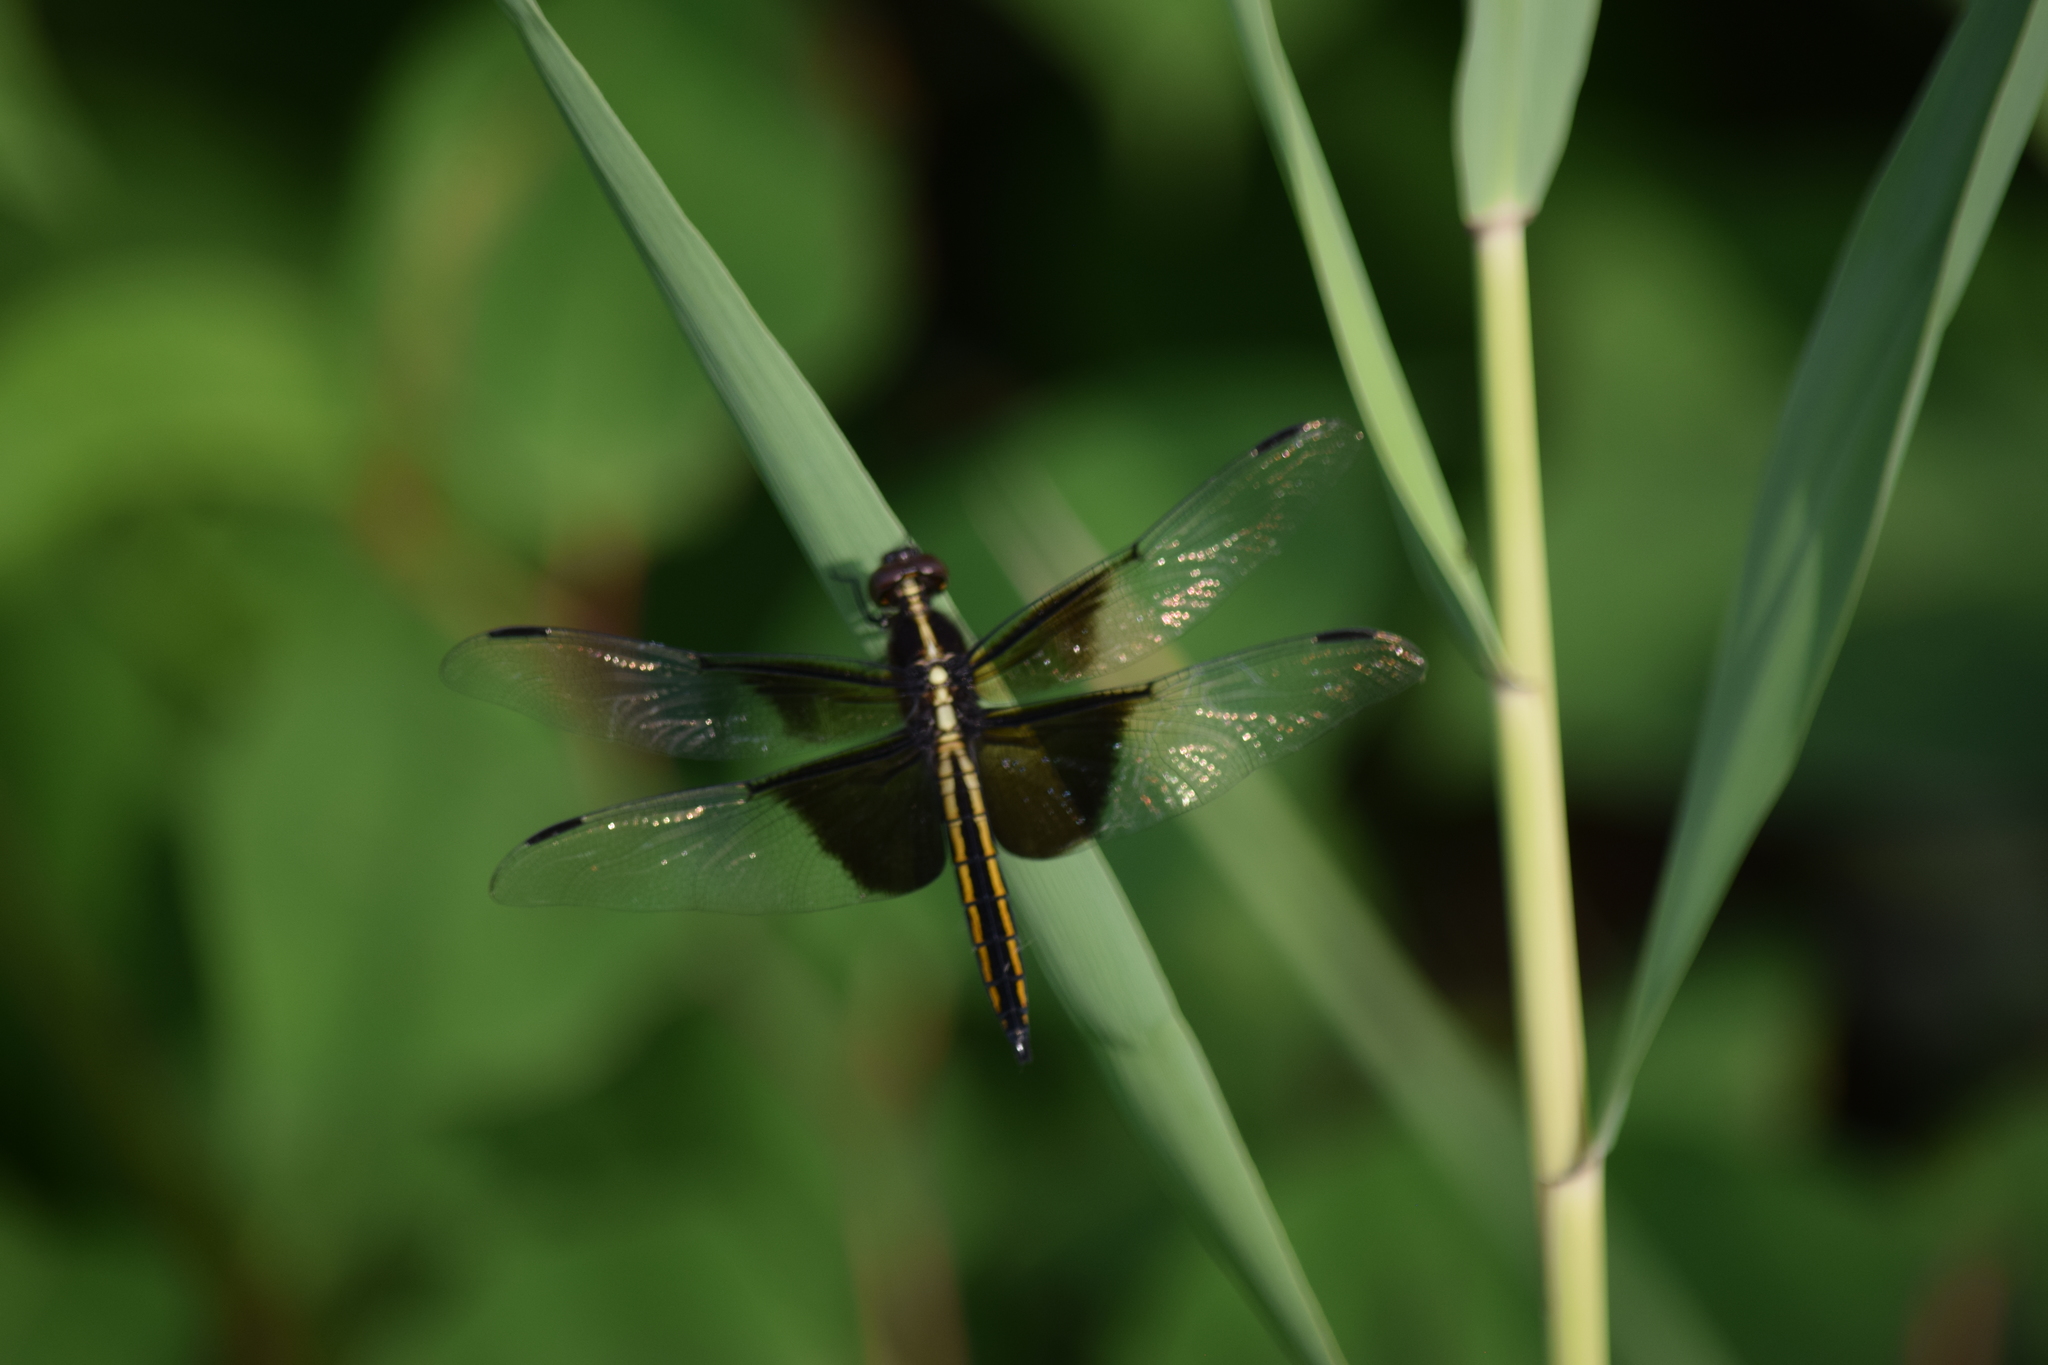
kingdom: Animalia
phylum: Arthropoda
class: Insecta
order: Odonata
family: Libellulidae
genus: Libellula
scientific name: Libellula luctuosa
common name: Widow skimmer
